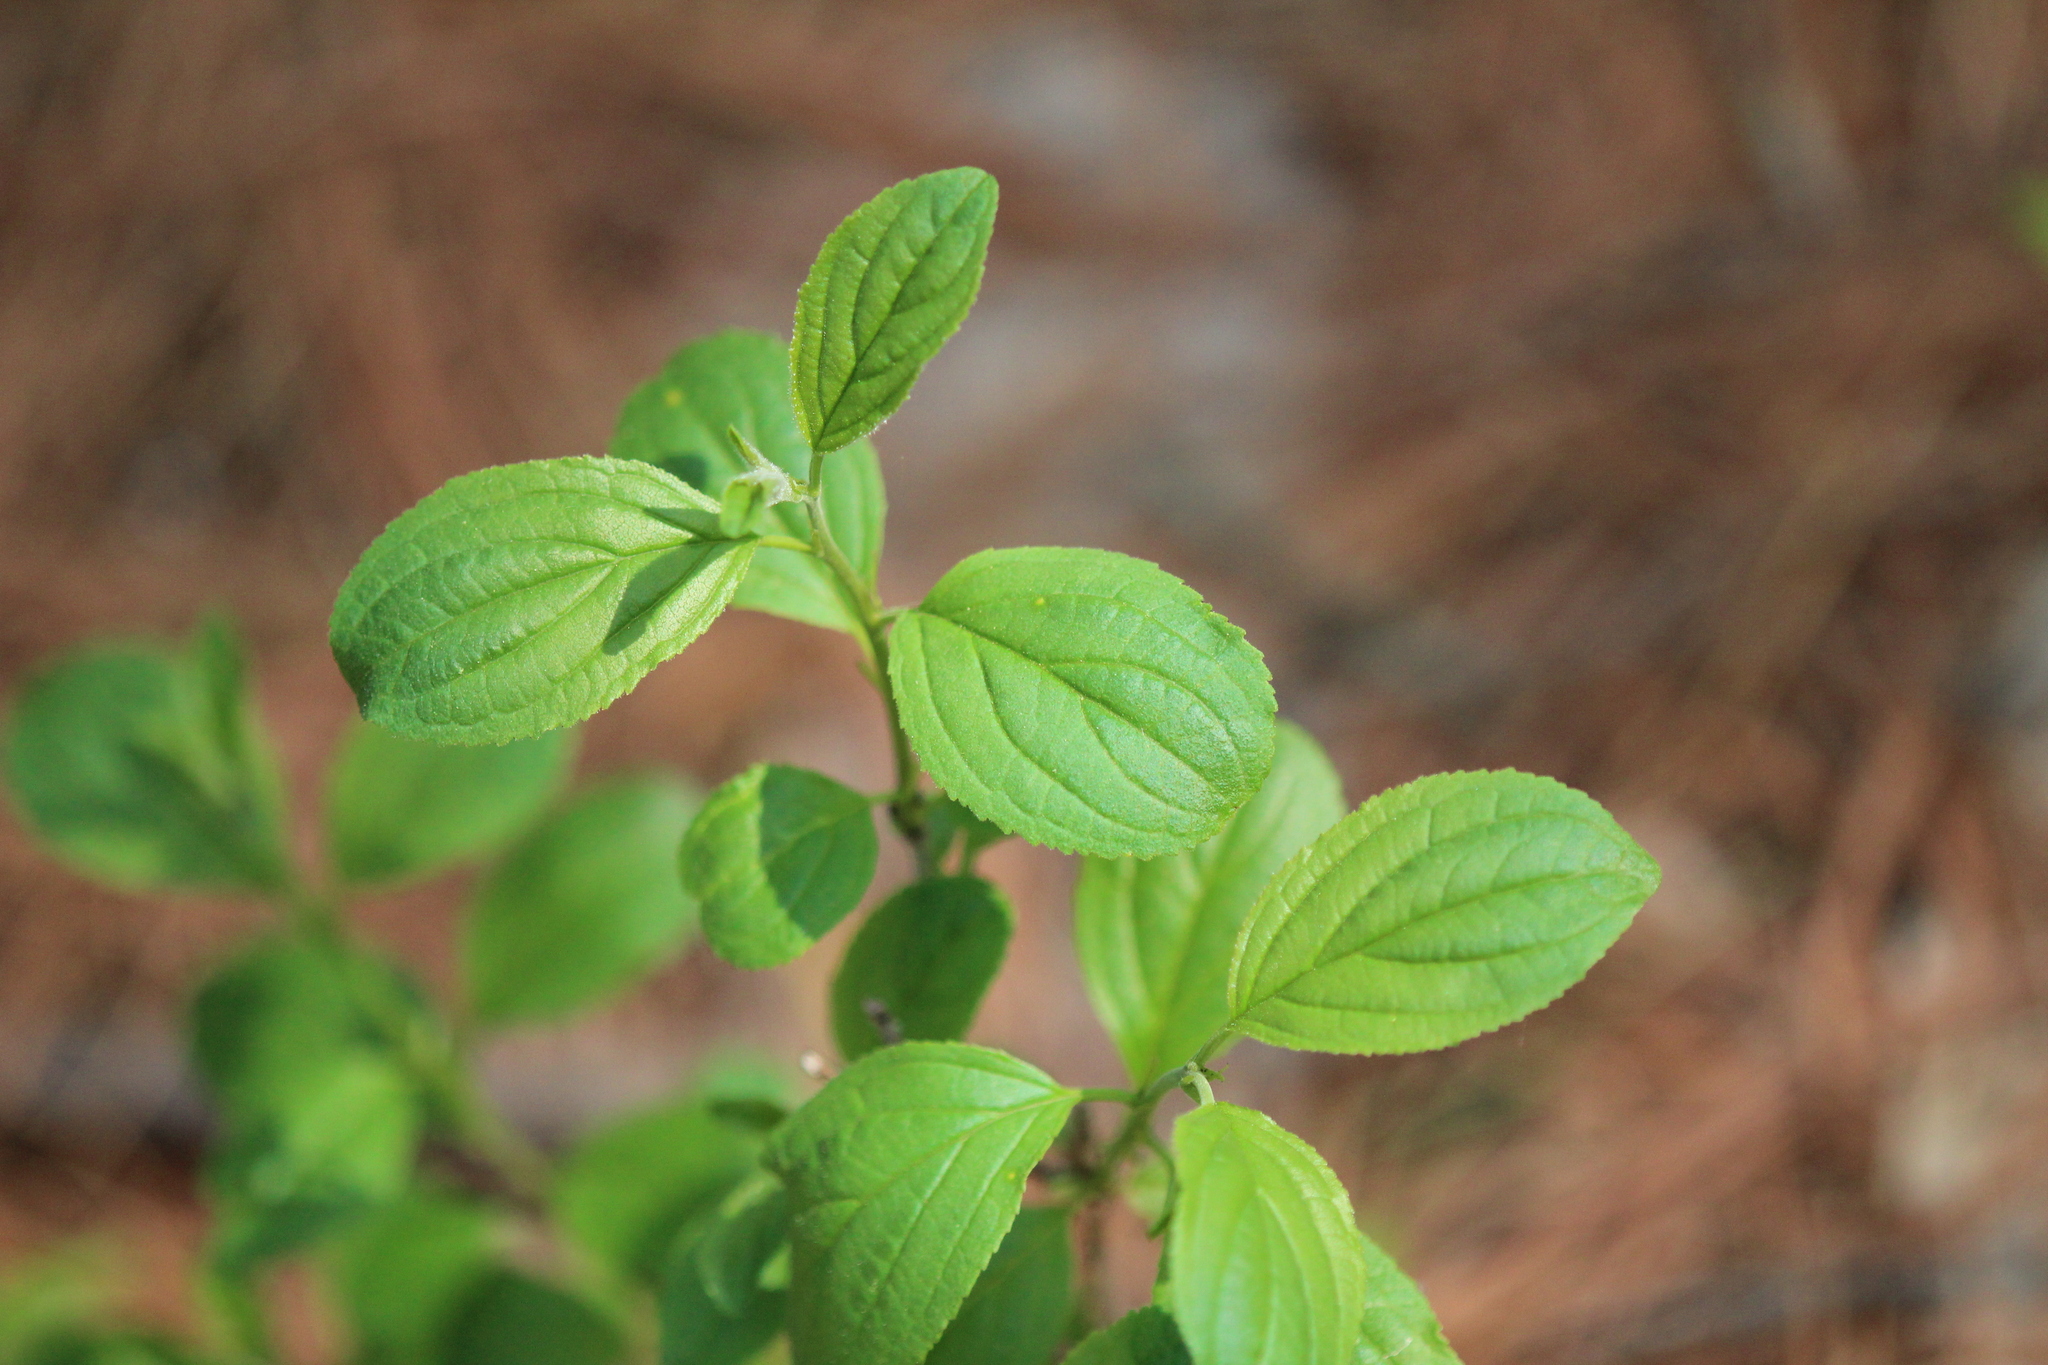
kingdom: Plantae
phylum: Tracheophyta
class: Magnoliopsida
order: Rosales
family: Rhamnaceae
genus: Rhamnus
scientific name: Rhamnus cathartica
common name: Common buckthorn
